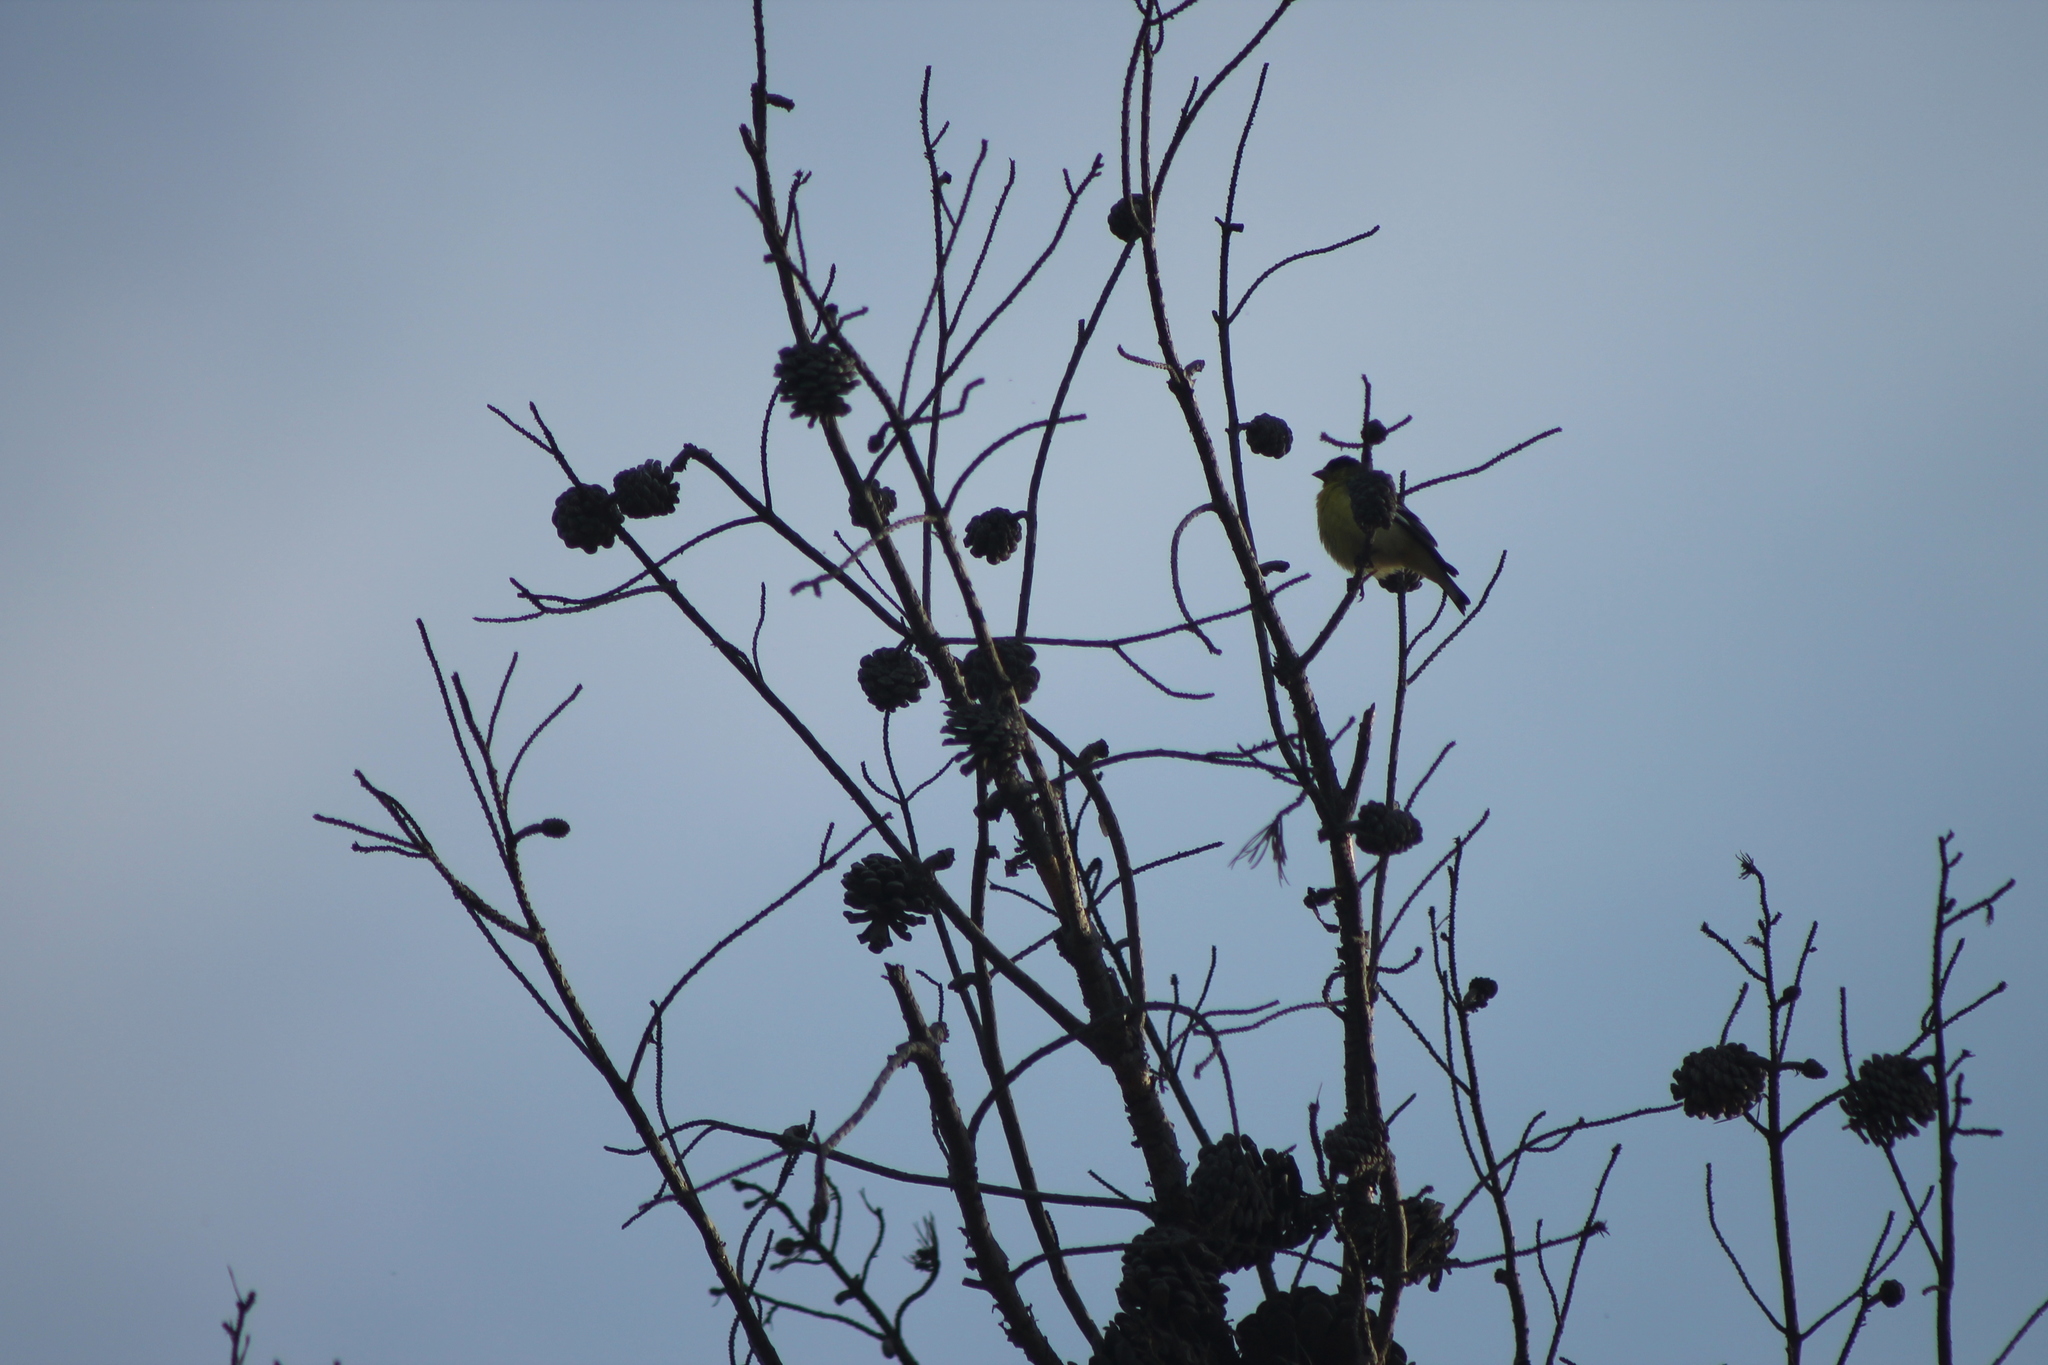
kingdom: Animalia
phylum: Chordata
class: Aves
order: Passeriformes
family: Fringillidae
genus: Spinus
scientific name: Spinus psaltria
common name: Lesser goldfinch
